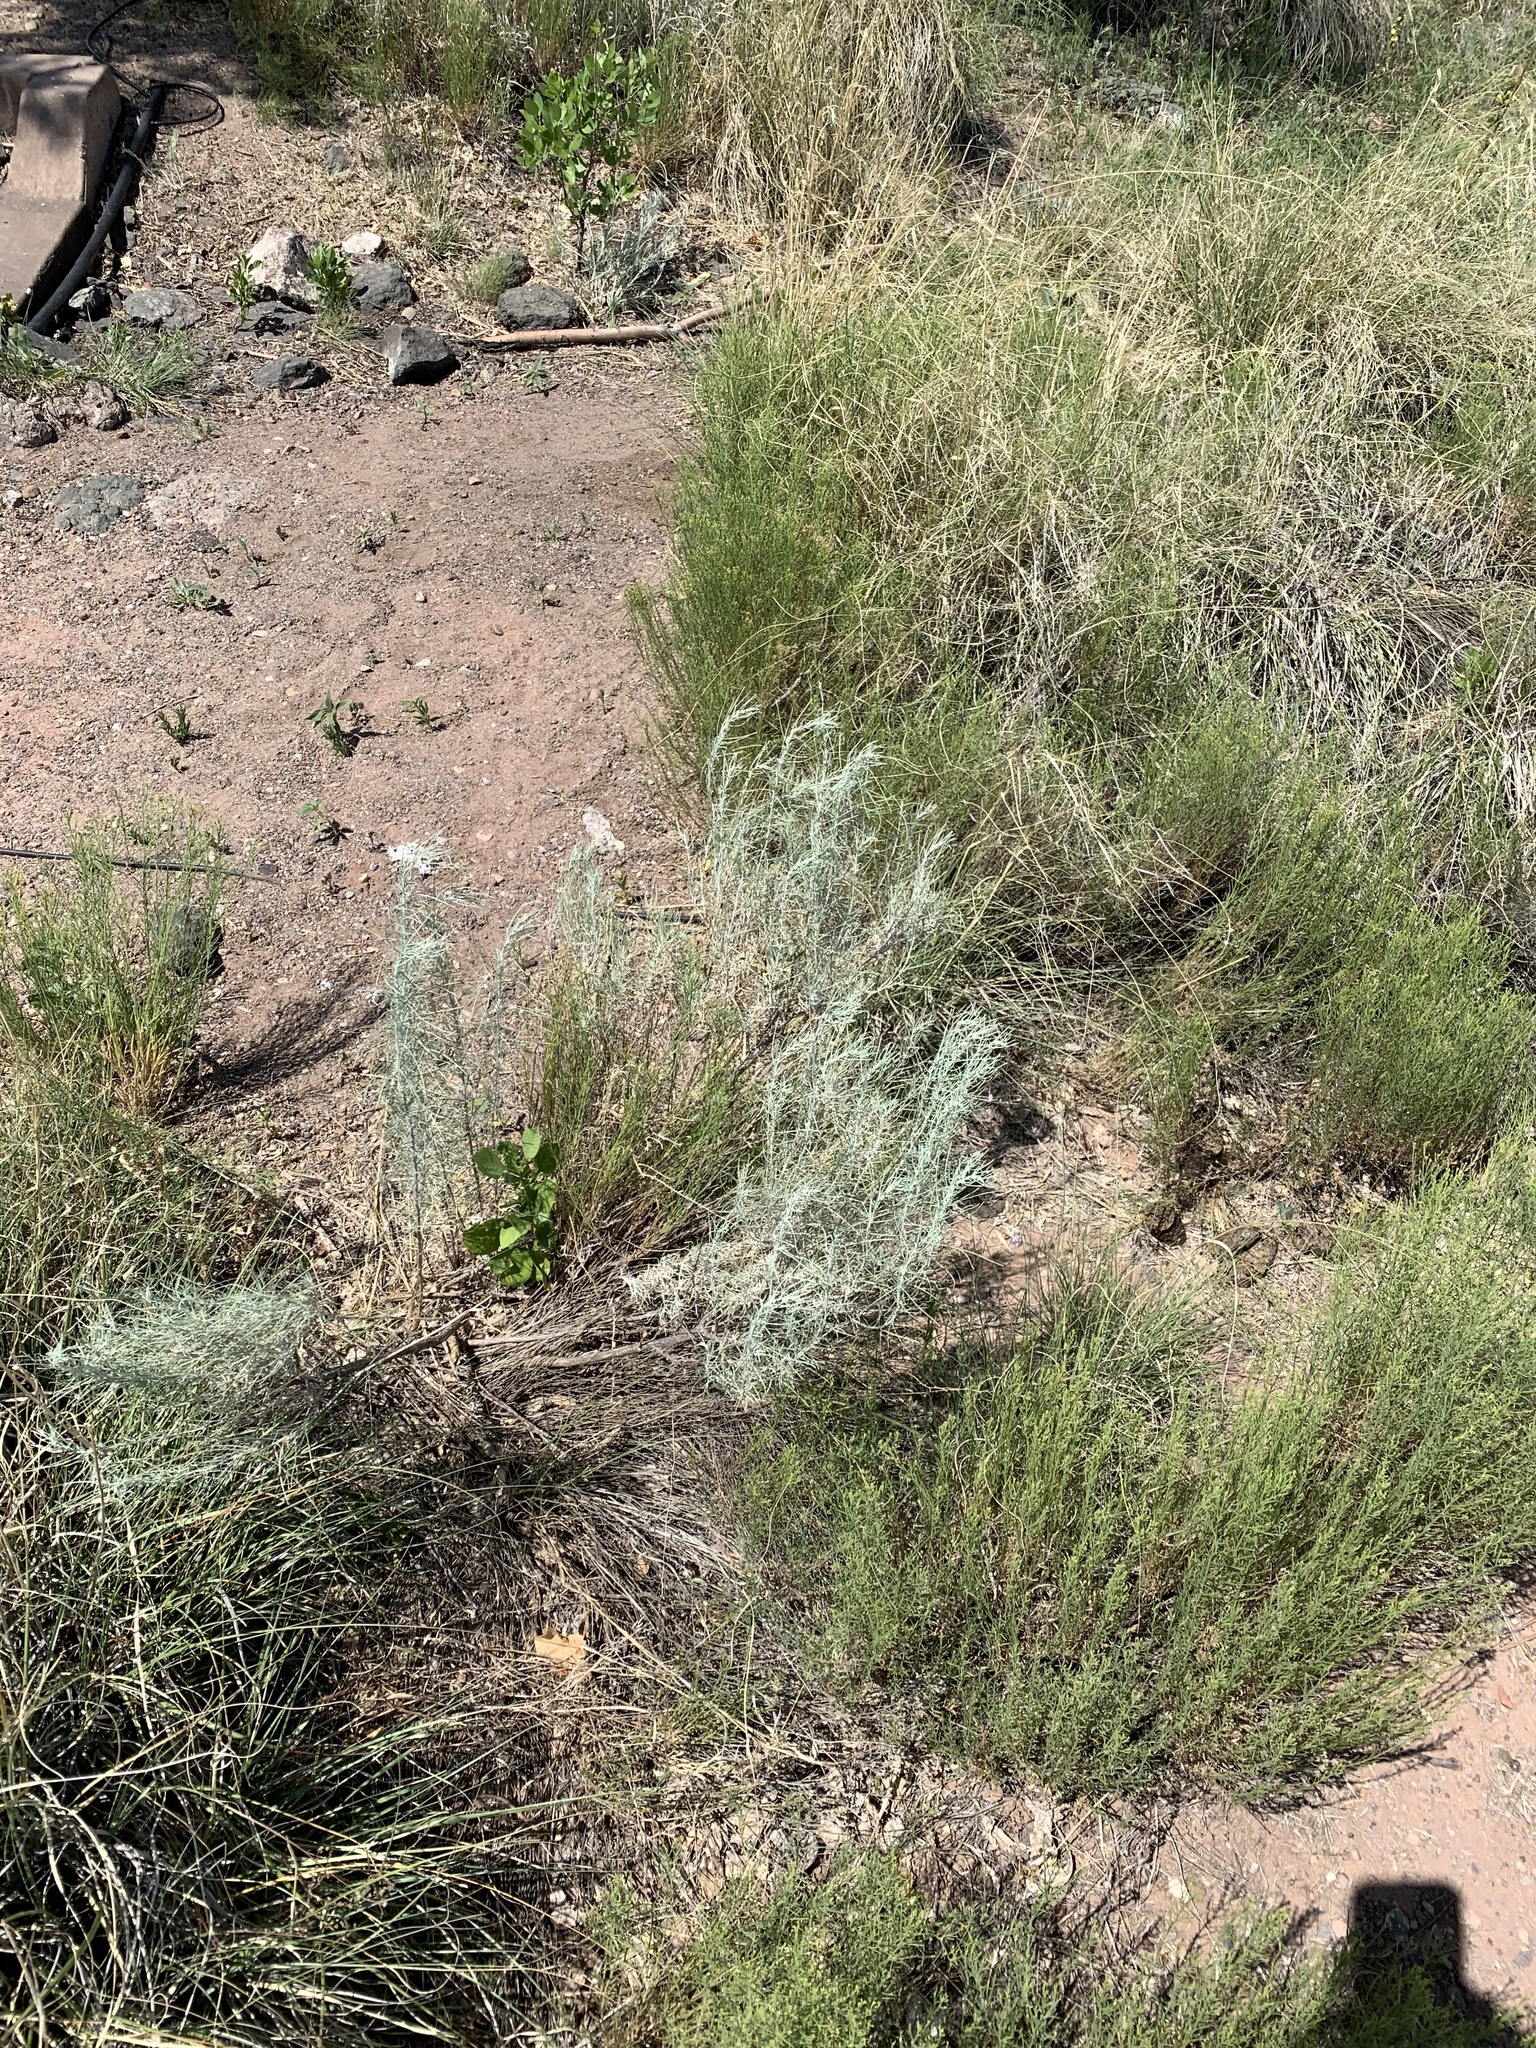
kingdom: Plantae
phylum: Tracheophyta
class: Magnoliopsida
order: Asterales
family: Asteraceae
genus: Artemisia
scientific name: Artemisia filifolia
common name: Sand-sage
